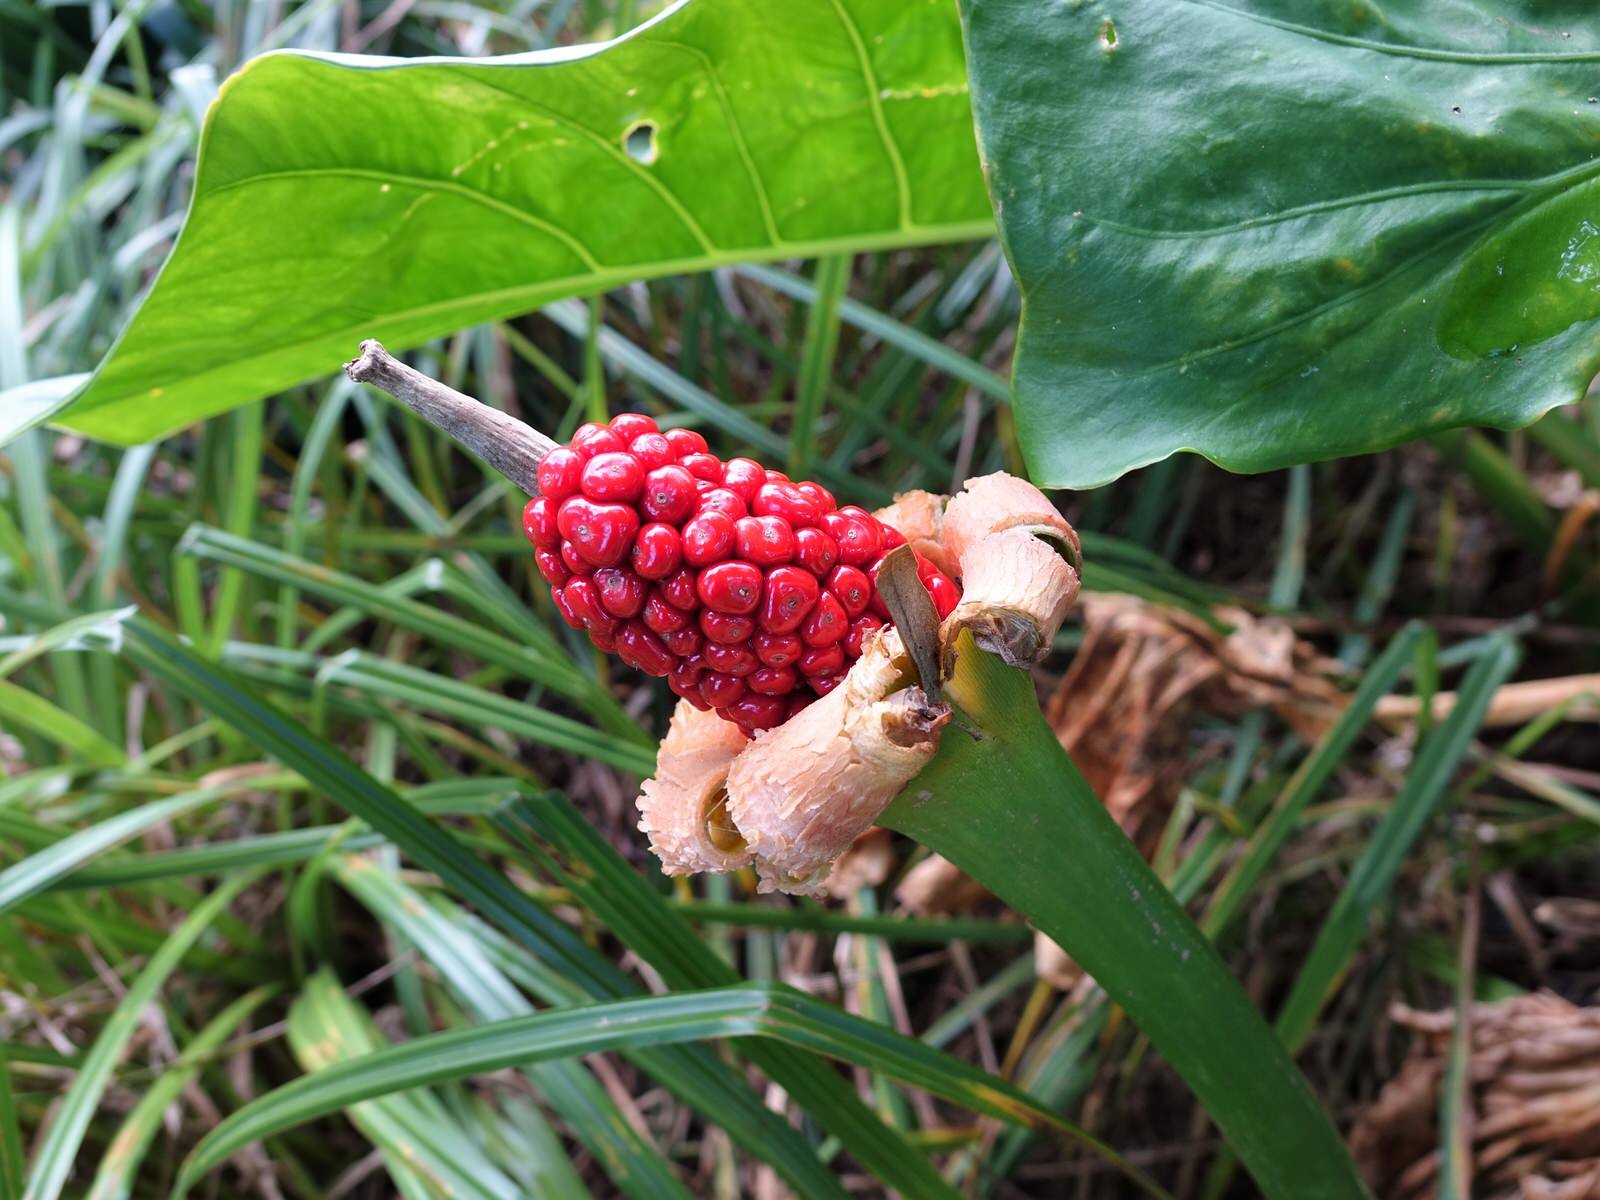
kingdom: Plantae
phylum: Tracheophyta
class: Liliopsida
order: Alismatales
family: Araceae
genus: Alocasia
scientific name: Alocasia brisbanensis
